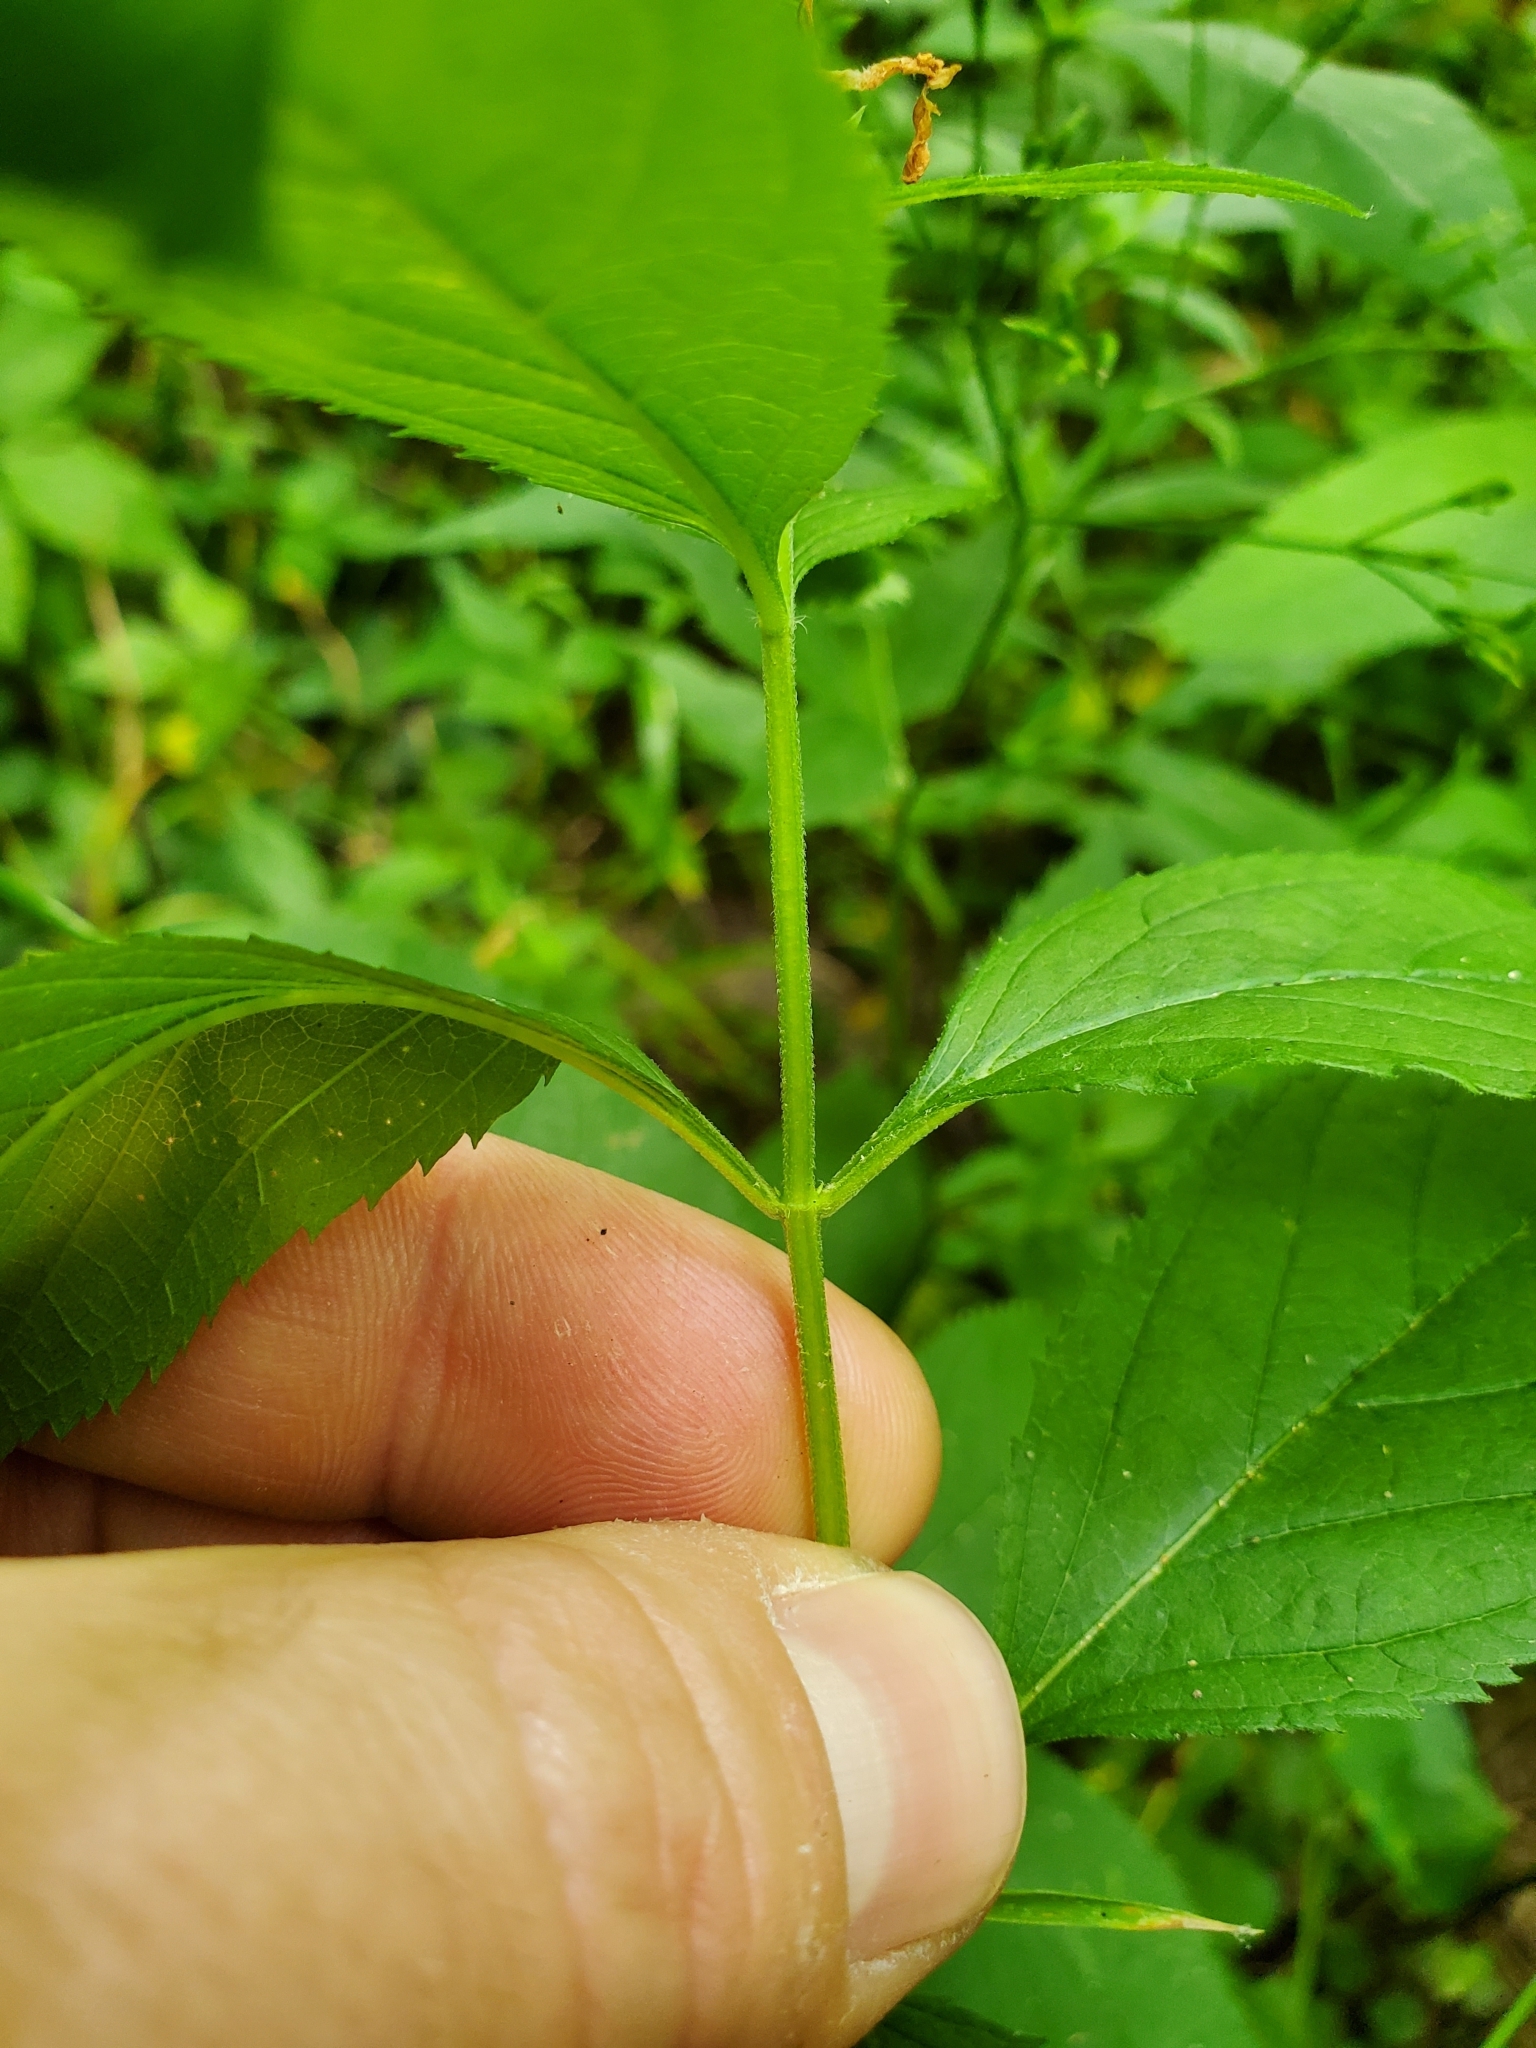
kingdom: Plantae
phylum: Tracheophyta
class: Magnoliopsida
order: Lamiales
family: Lamiaceae
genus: Teucrium
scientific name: Teucrium canadense
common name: American germander
